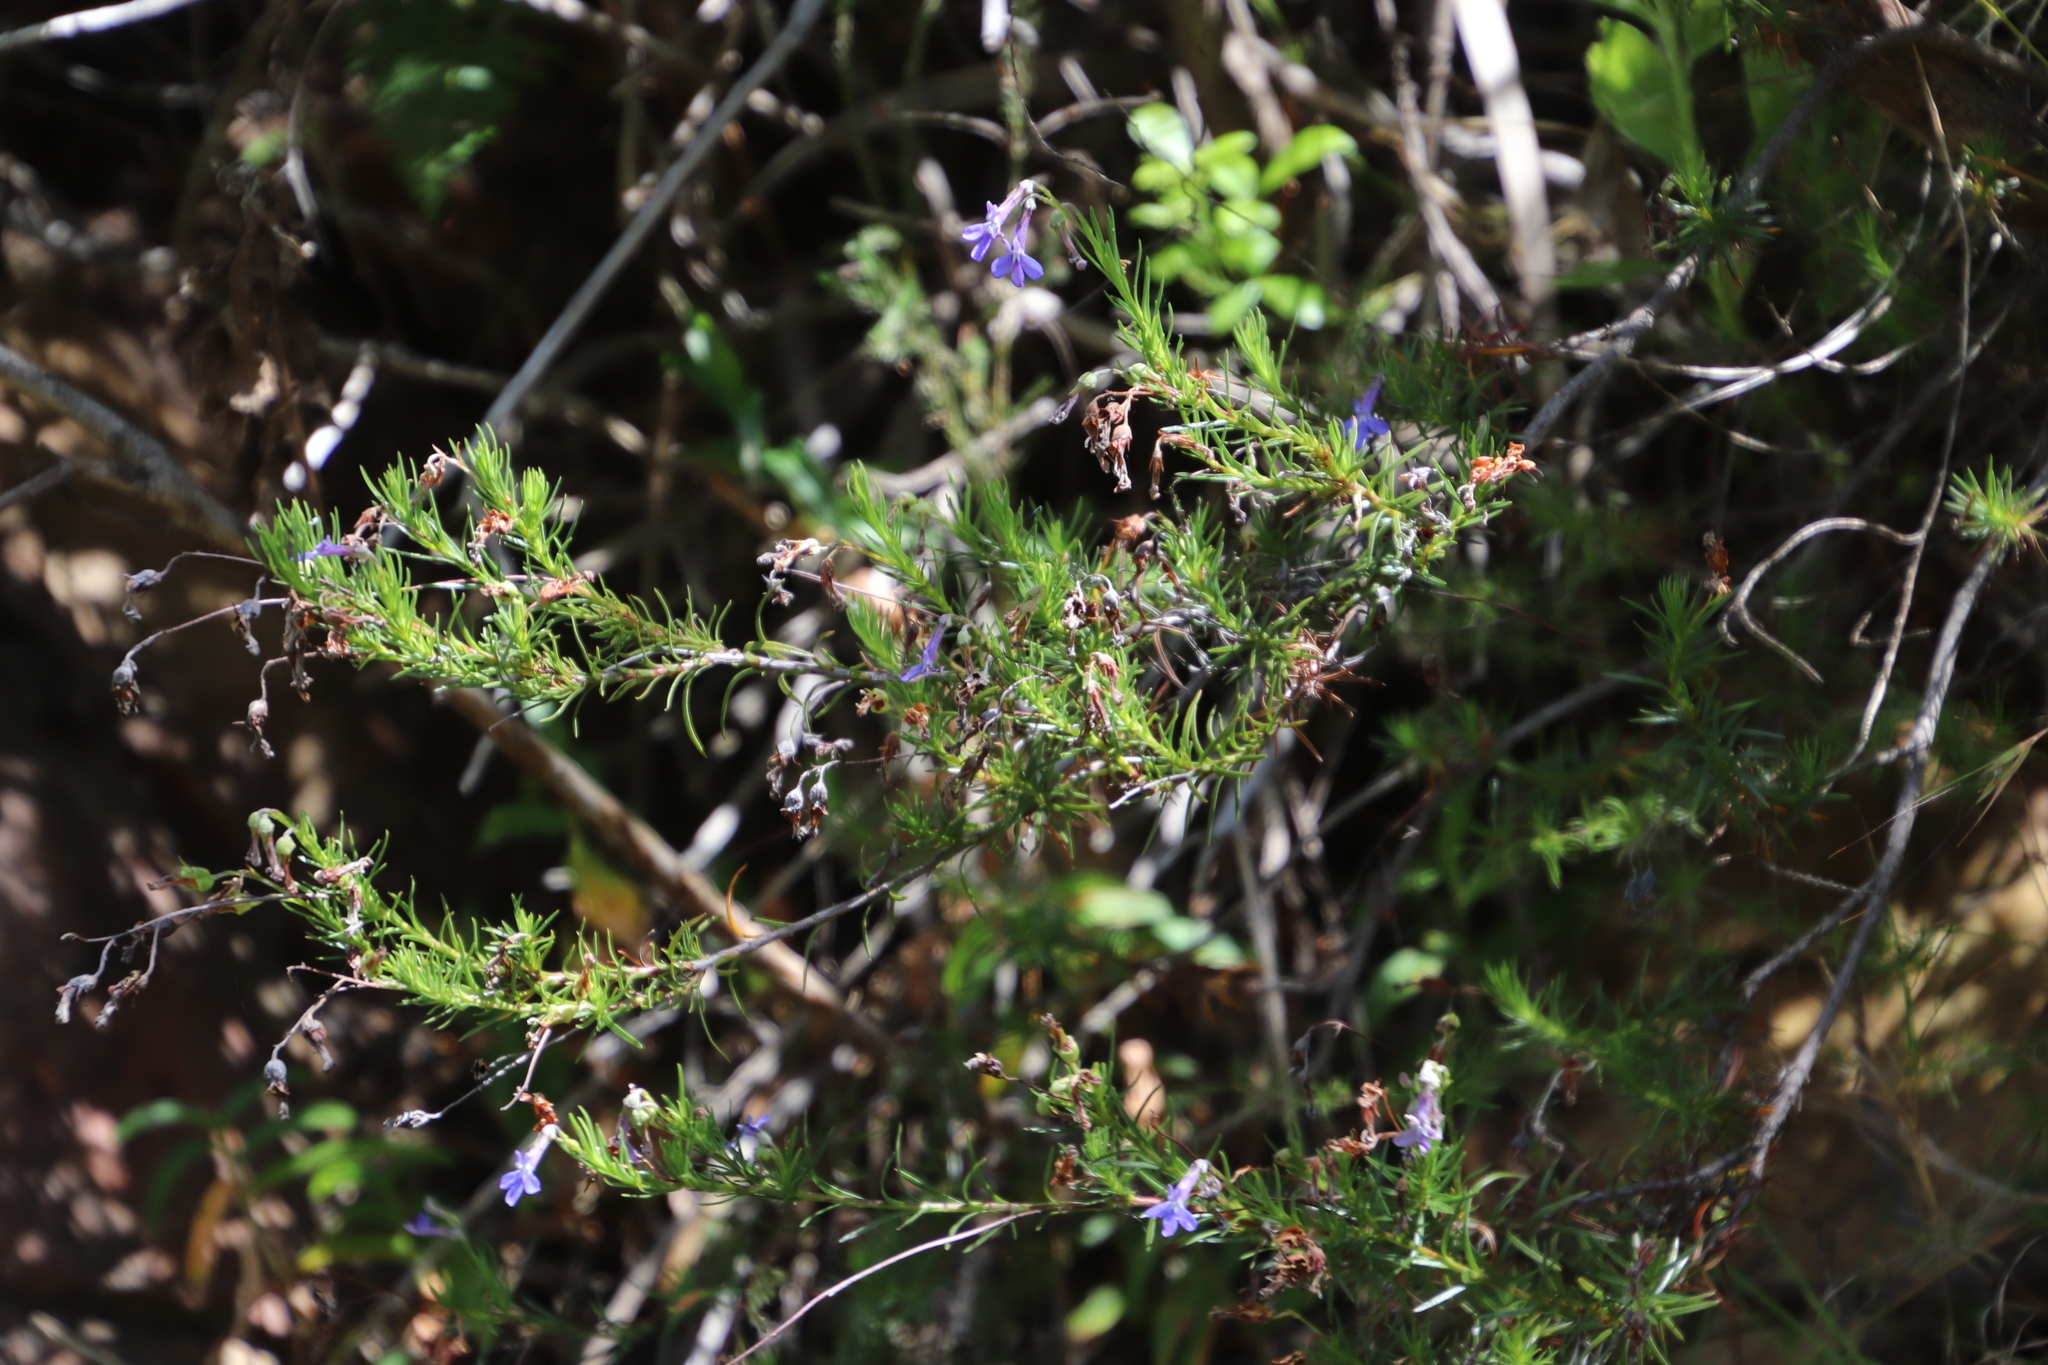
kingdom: Plantae
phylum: Tracheophyta
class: Magnoliopsida
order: Asterales
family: Campanulaceae
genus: Lobelia
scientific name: Lobelia pinifolia
